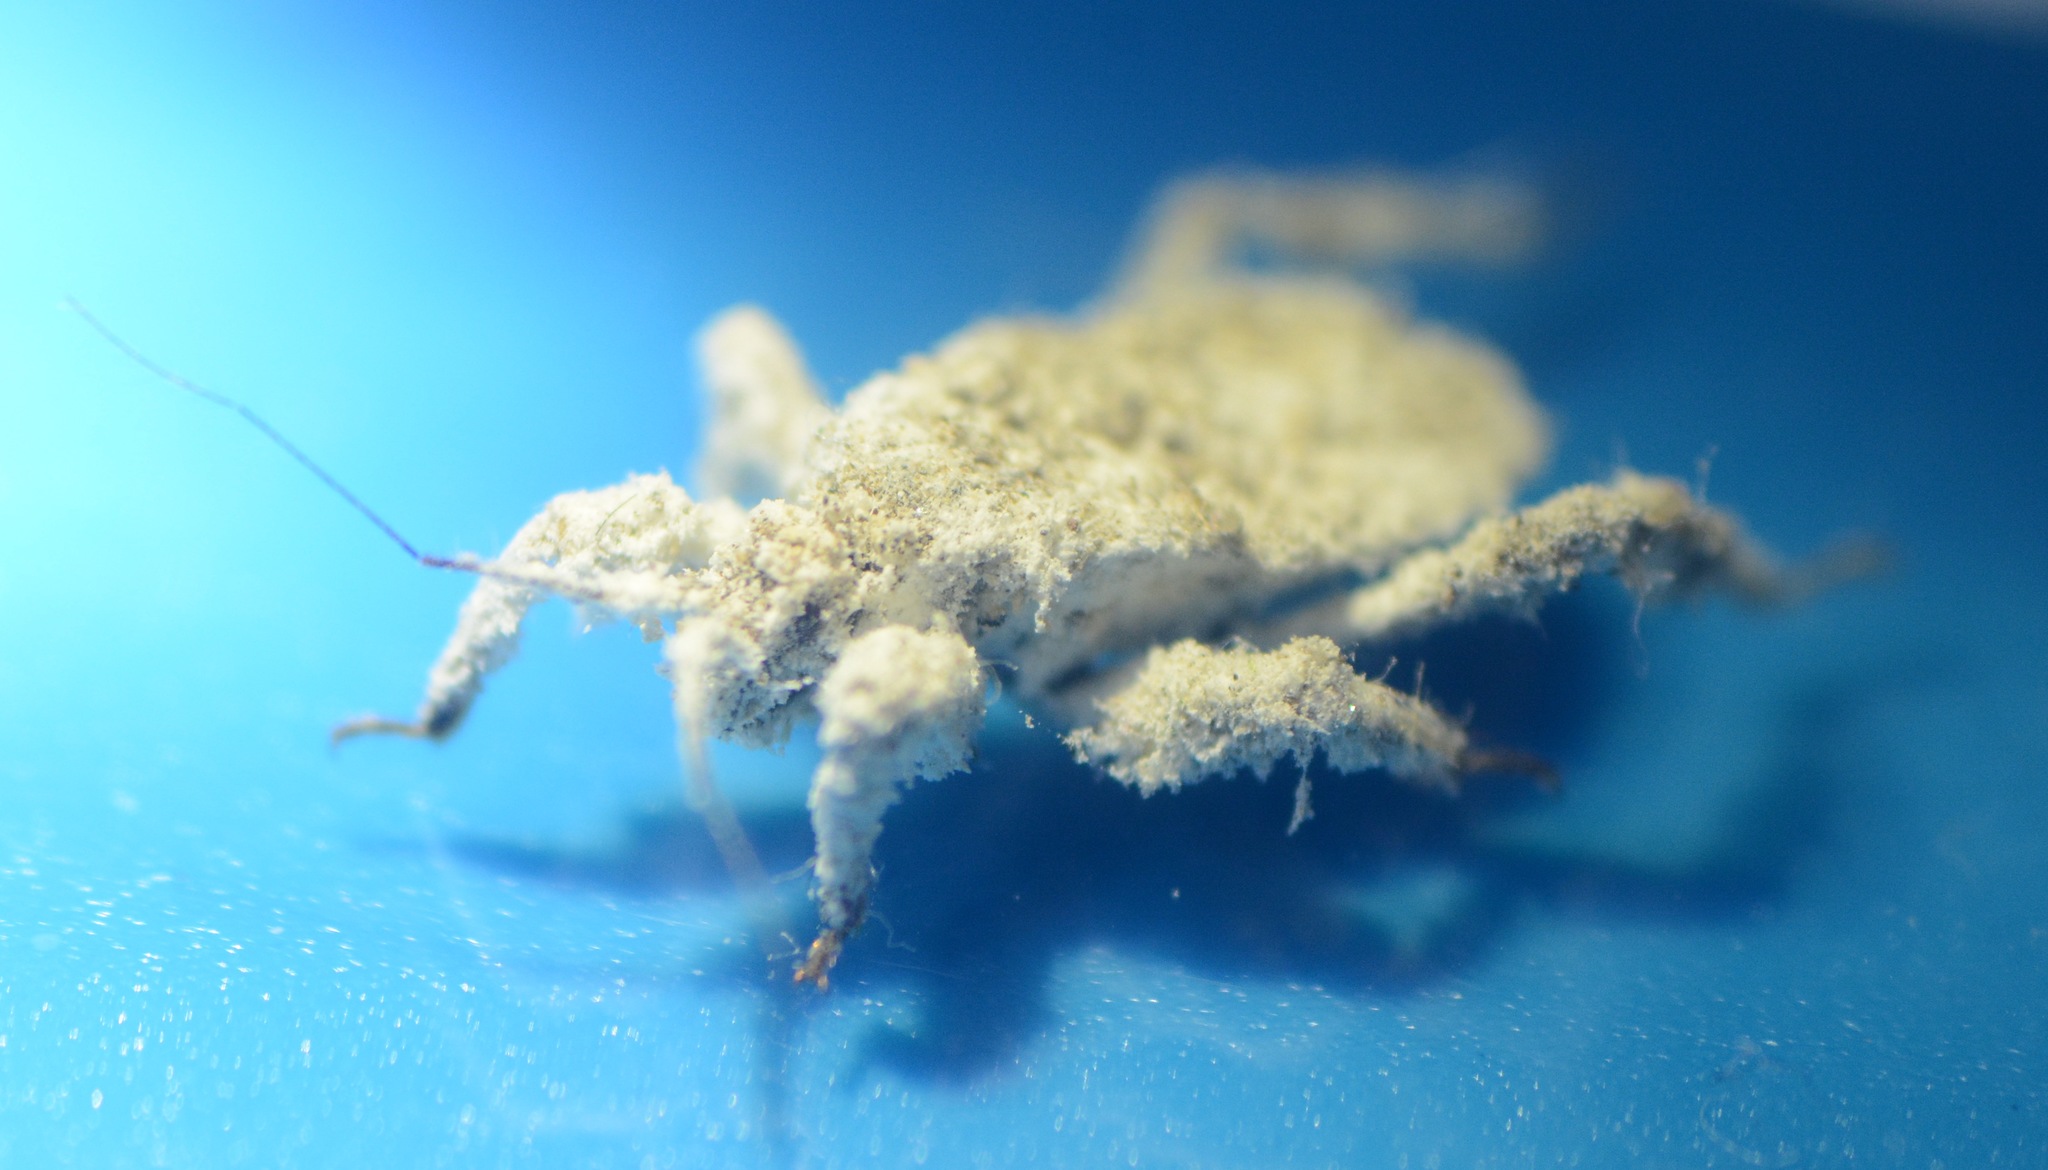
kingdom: Animalia
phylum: Arthropoda
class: Insecta
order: Hemiptera
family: Reduviidae
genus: Reduvius
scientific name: Reduvius personatus
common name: Masked hunter
